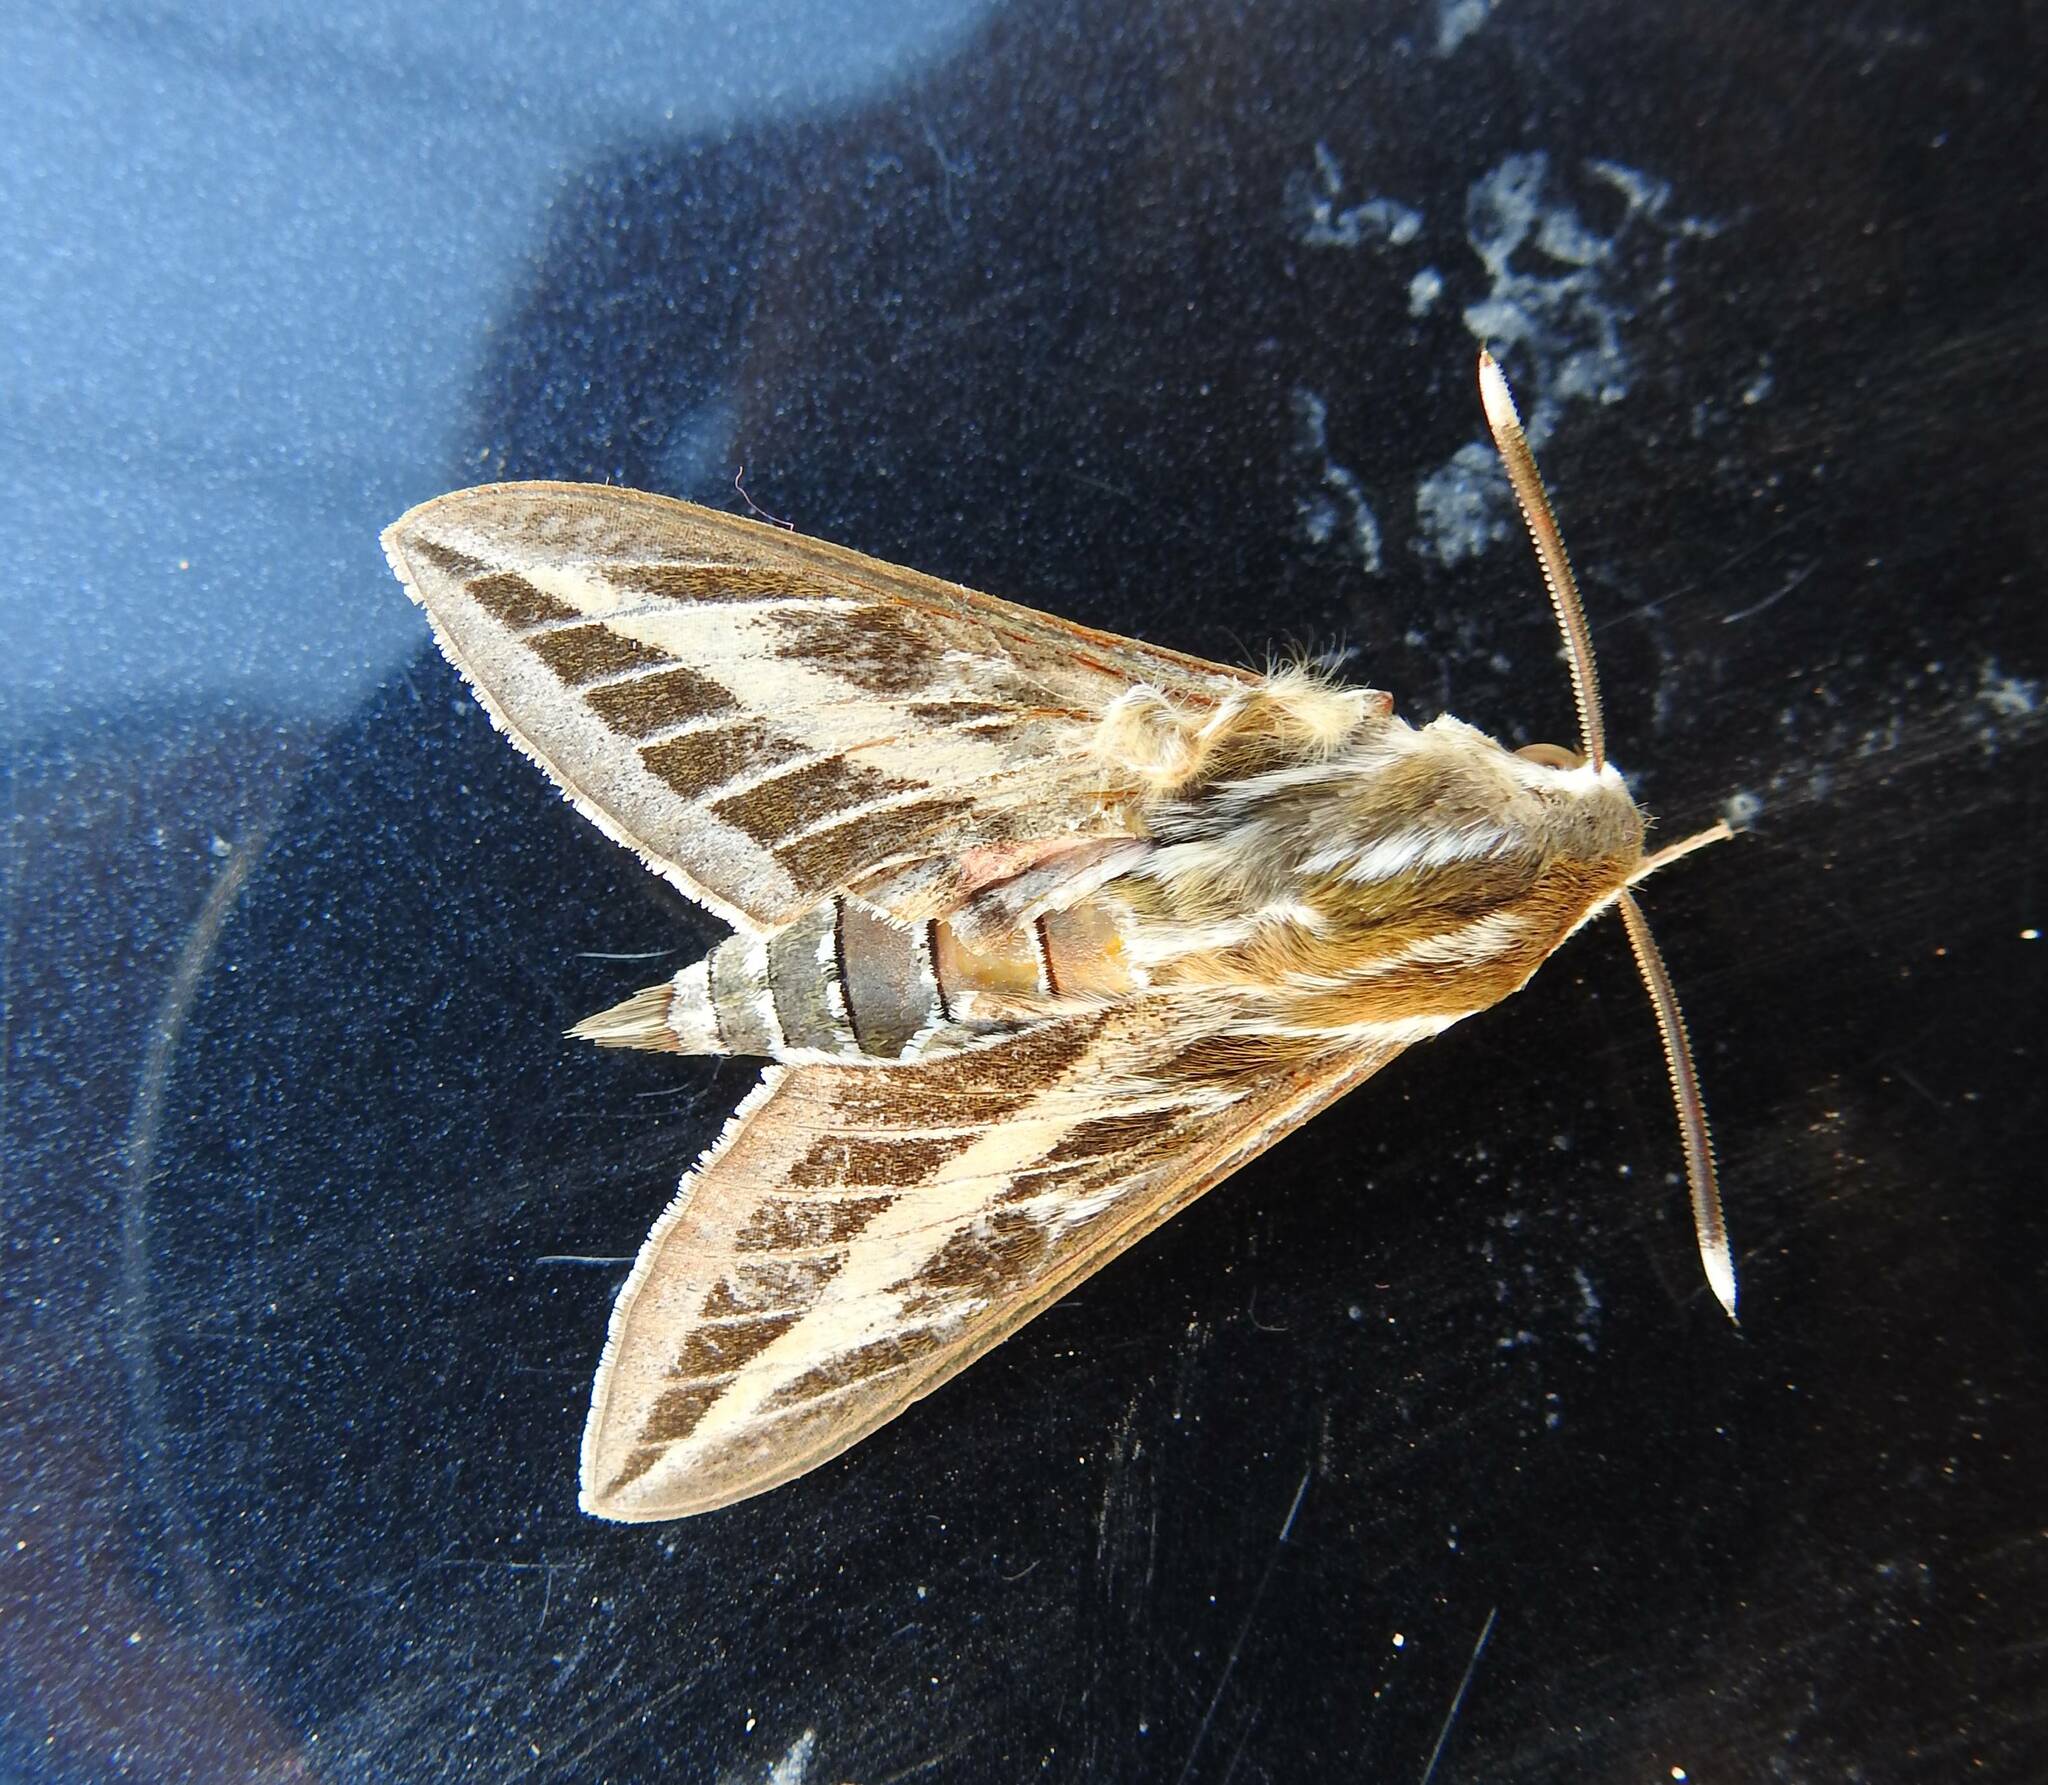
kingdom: Animalia
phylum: Arthropoda
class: Insecta
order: Lepidoptera
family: Sphingidae
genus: Hyles
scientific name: Hyles livornica
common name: Striped hawk-moth
